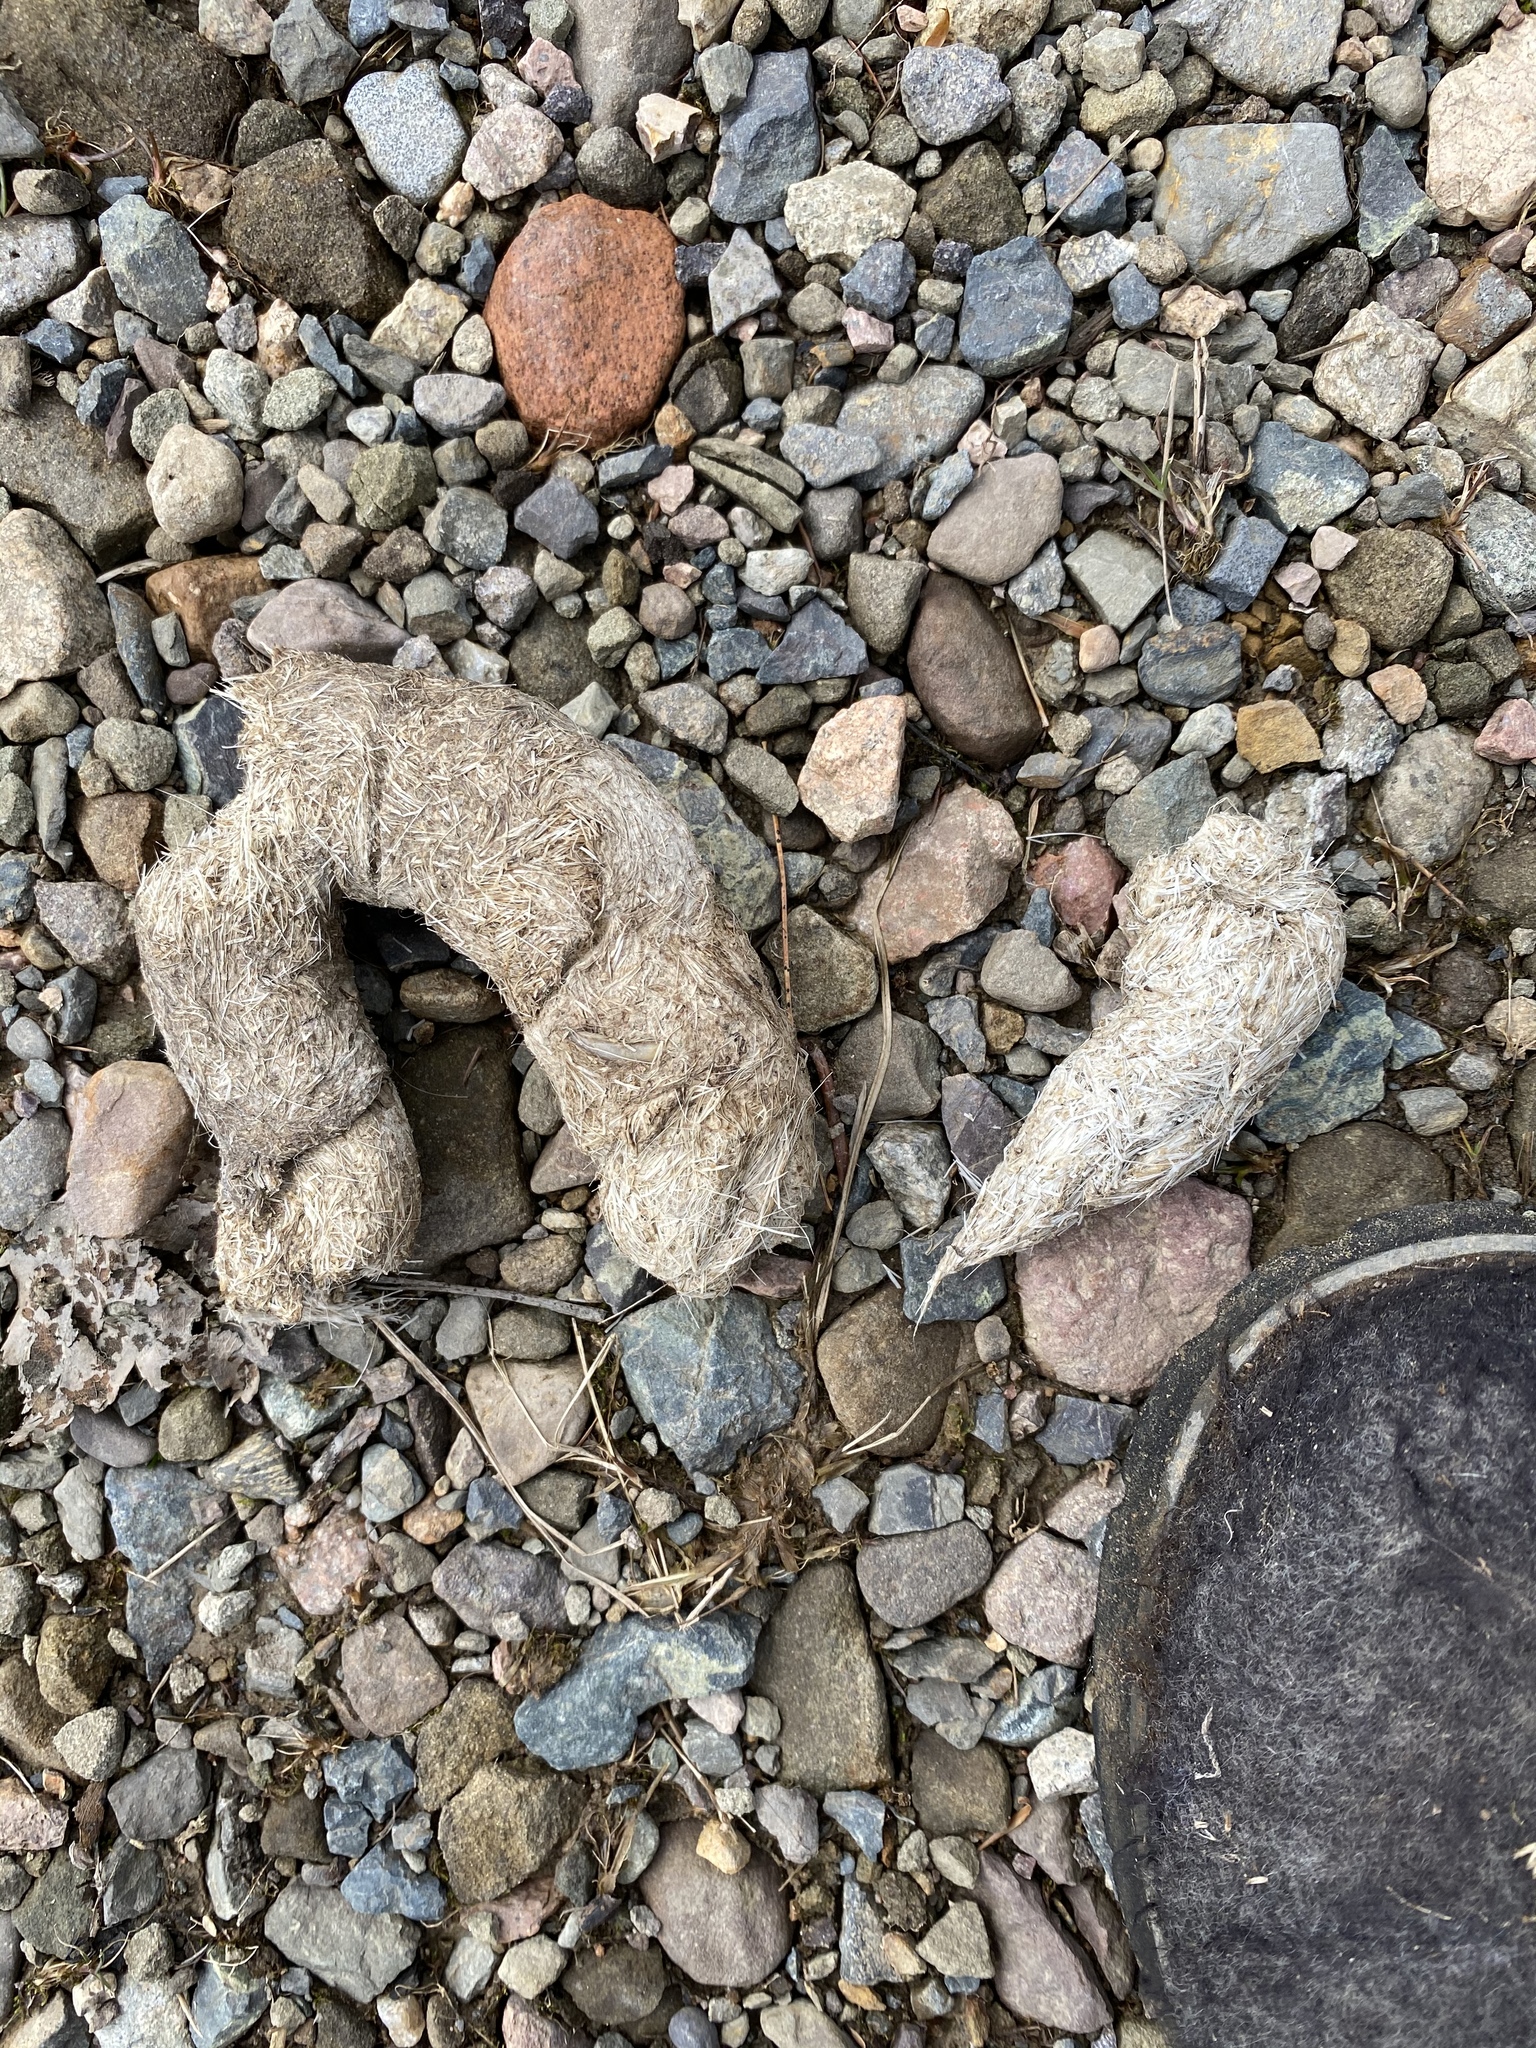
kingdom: Animalia
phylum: Chordata
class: Mammalia
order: Carnivora
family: Canidae
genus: Canis
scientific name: Canis latrans
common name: Coyote
